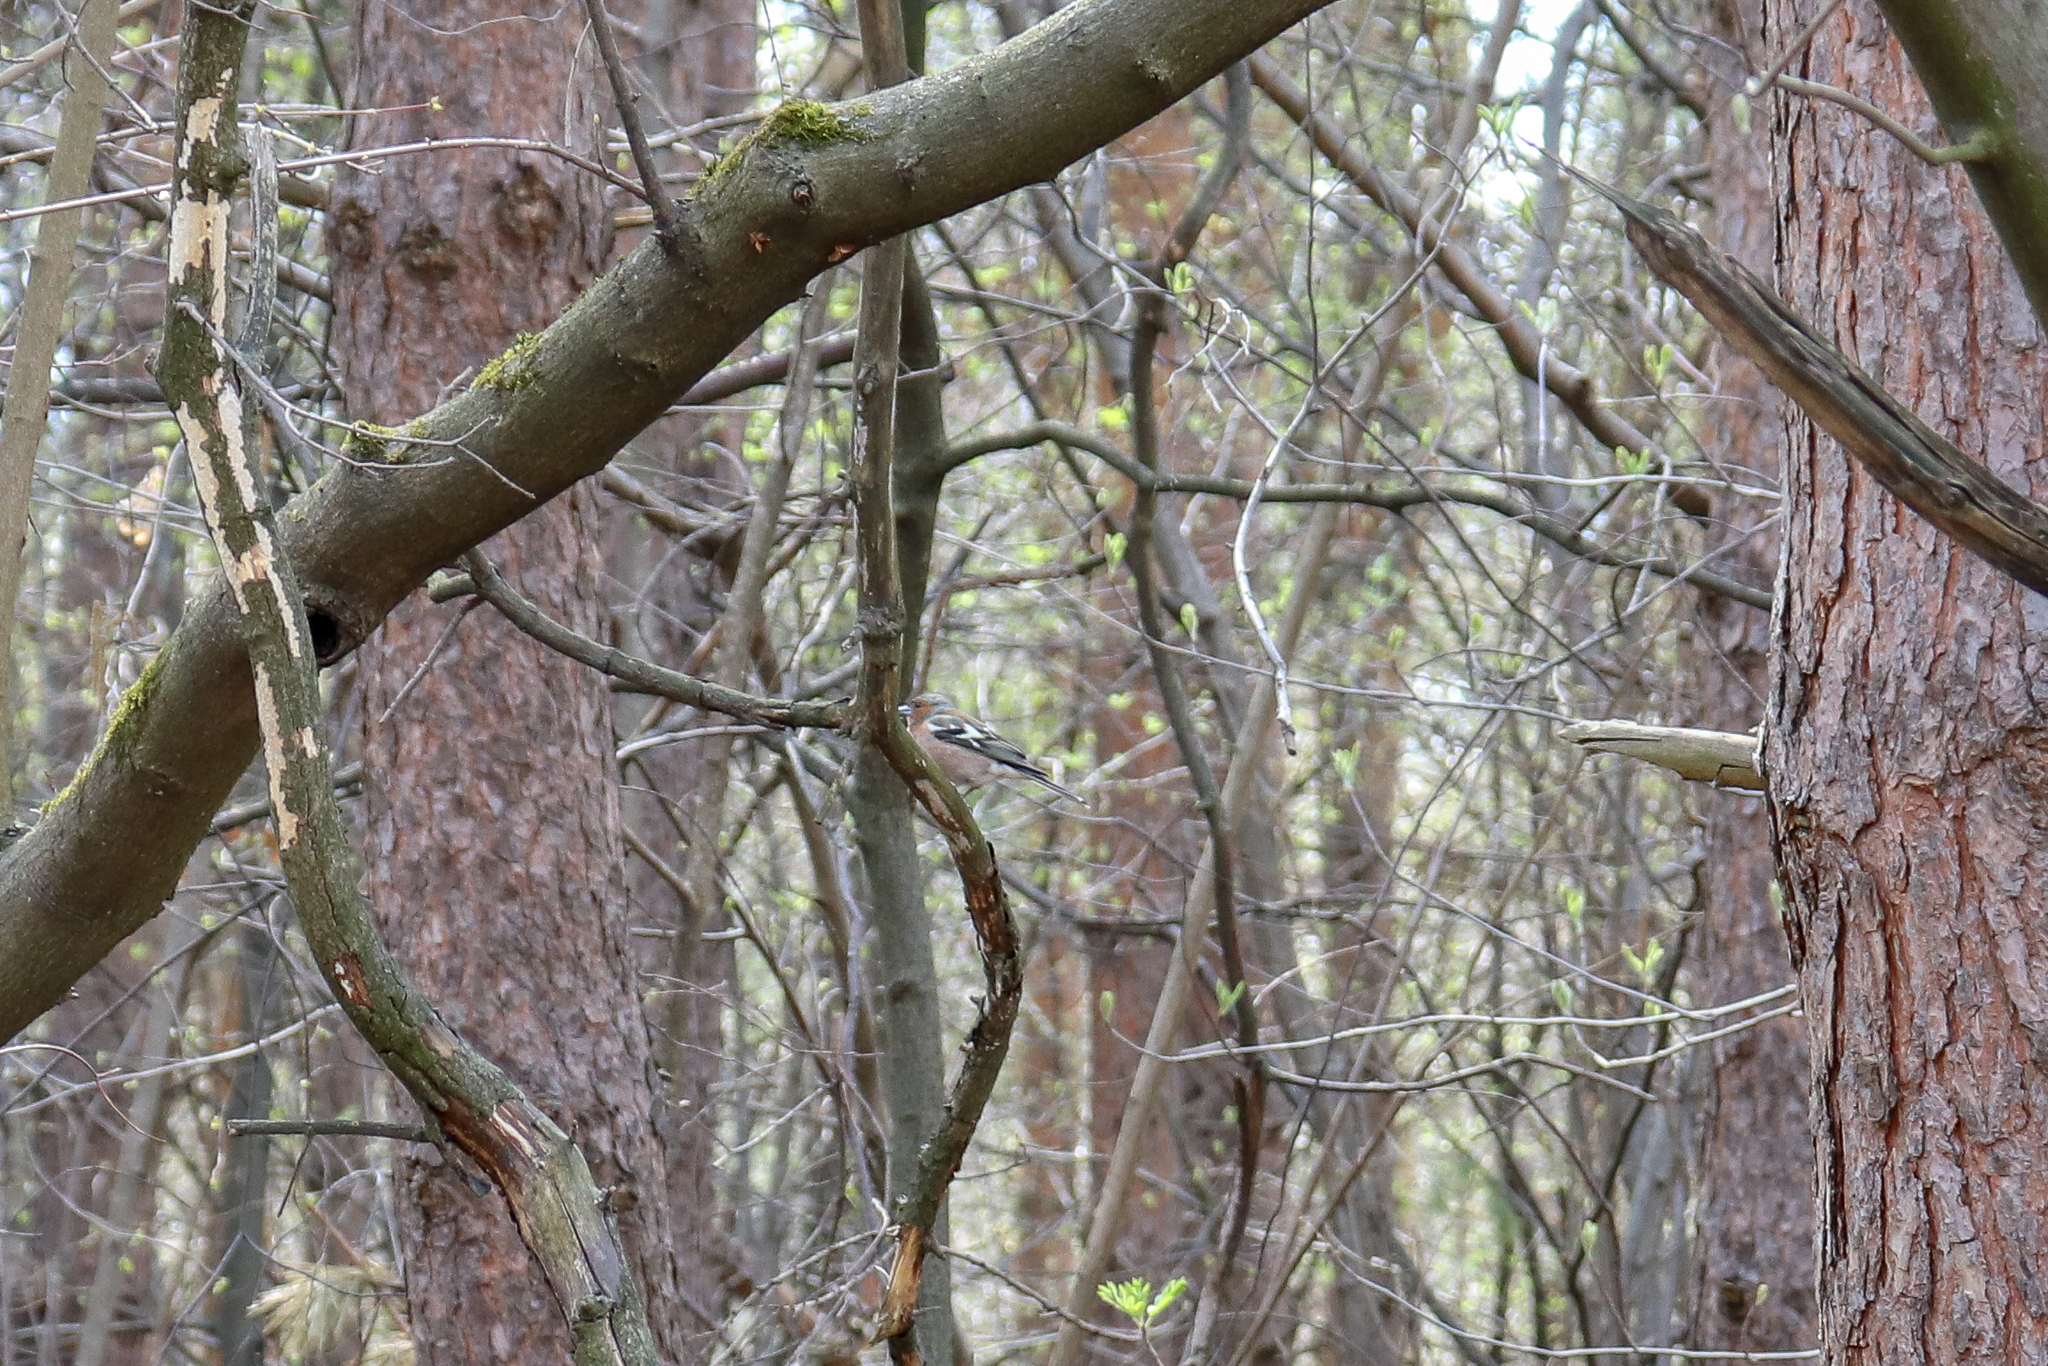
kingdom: Animalia
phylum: Chordata
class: Aves
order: Passeriformes
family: Fringillidae
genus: Fringilla
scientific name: Fringilla coelebs
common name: Common chaffinch
